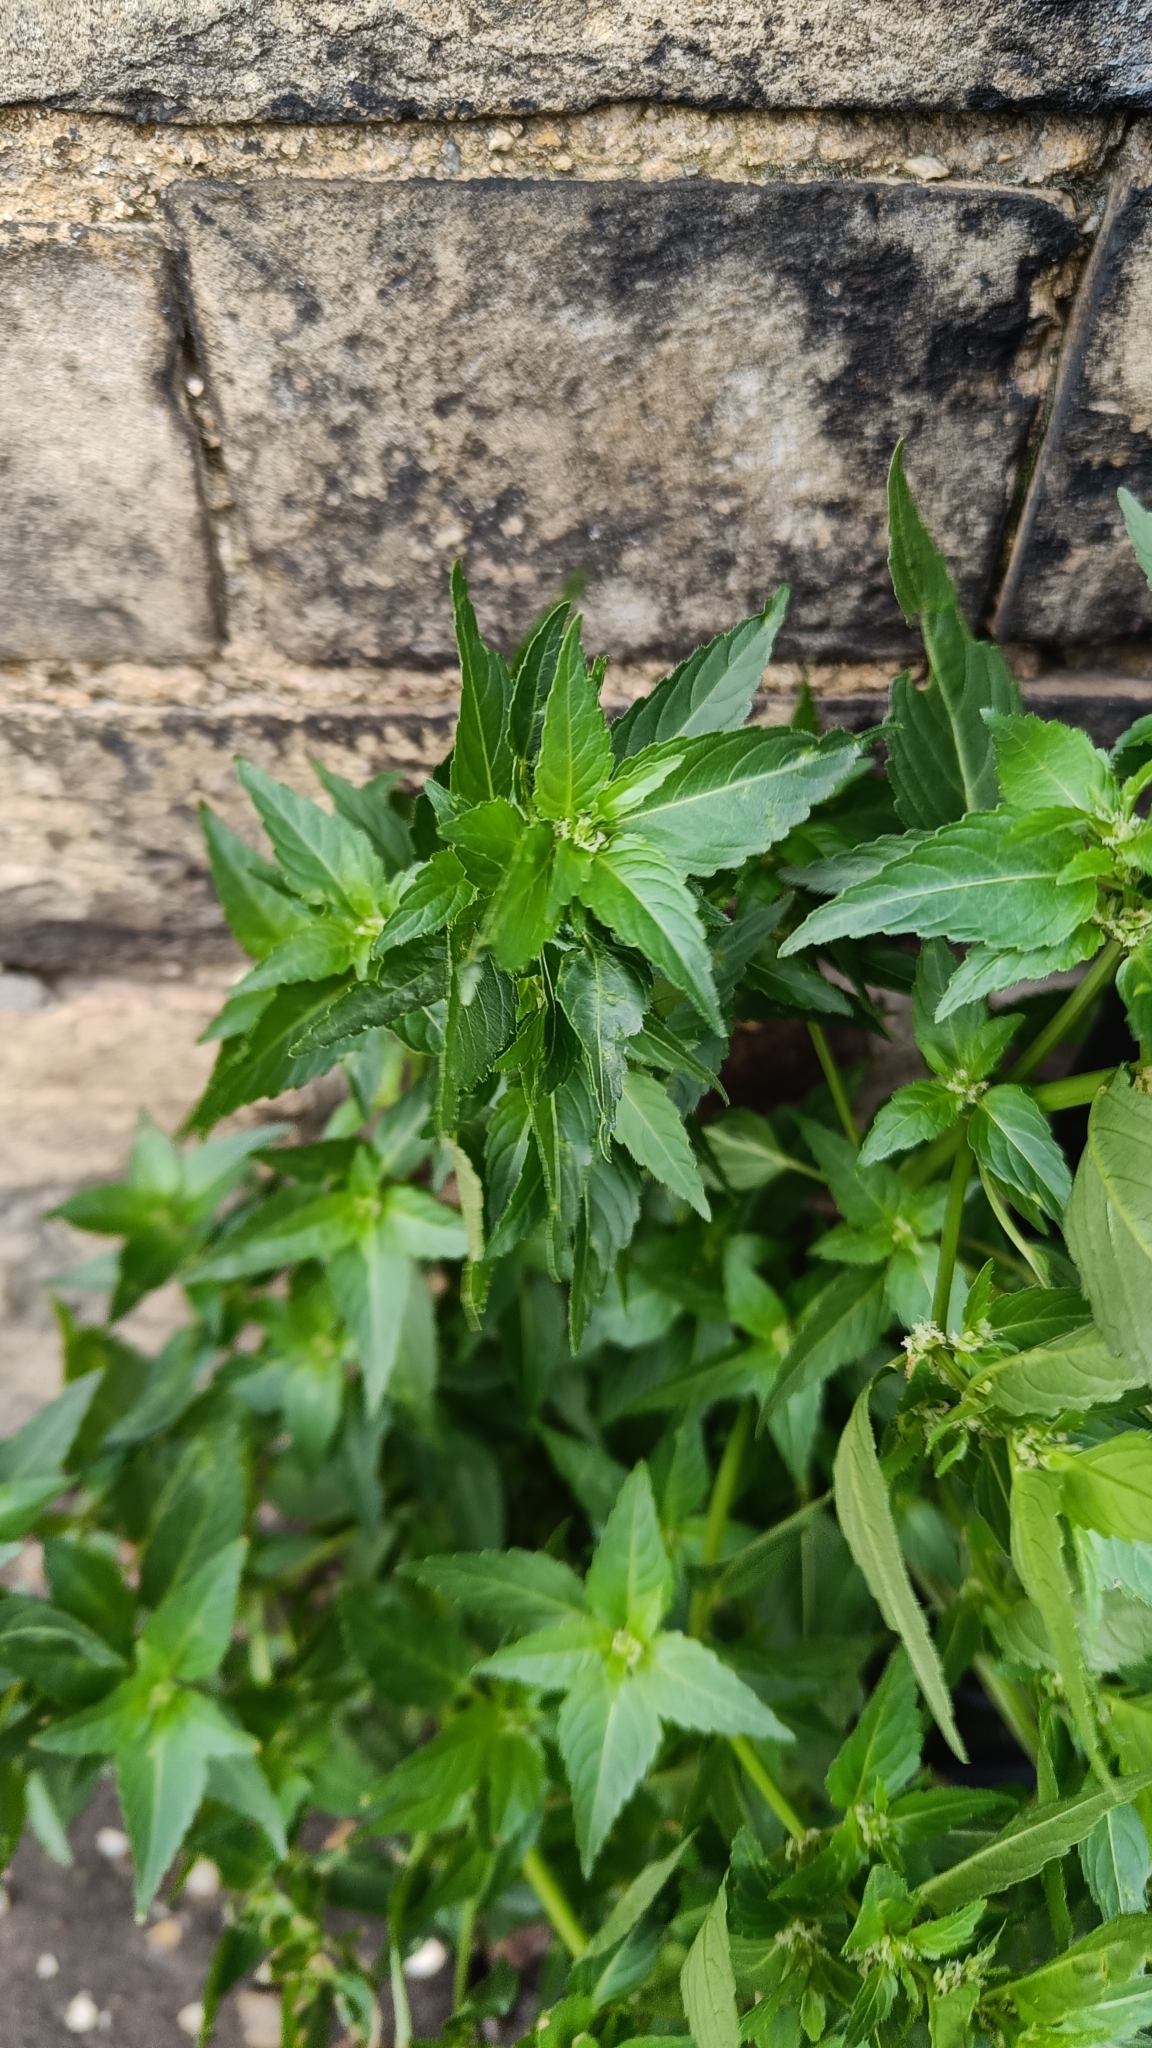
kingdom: Plantae
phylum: Tracheophyta
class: Magnoliopsida
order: Malpighiales
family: Euphorbiaceae
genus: Mercurialis
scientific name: Mercurialis annua
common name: Annual mercury
